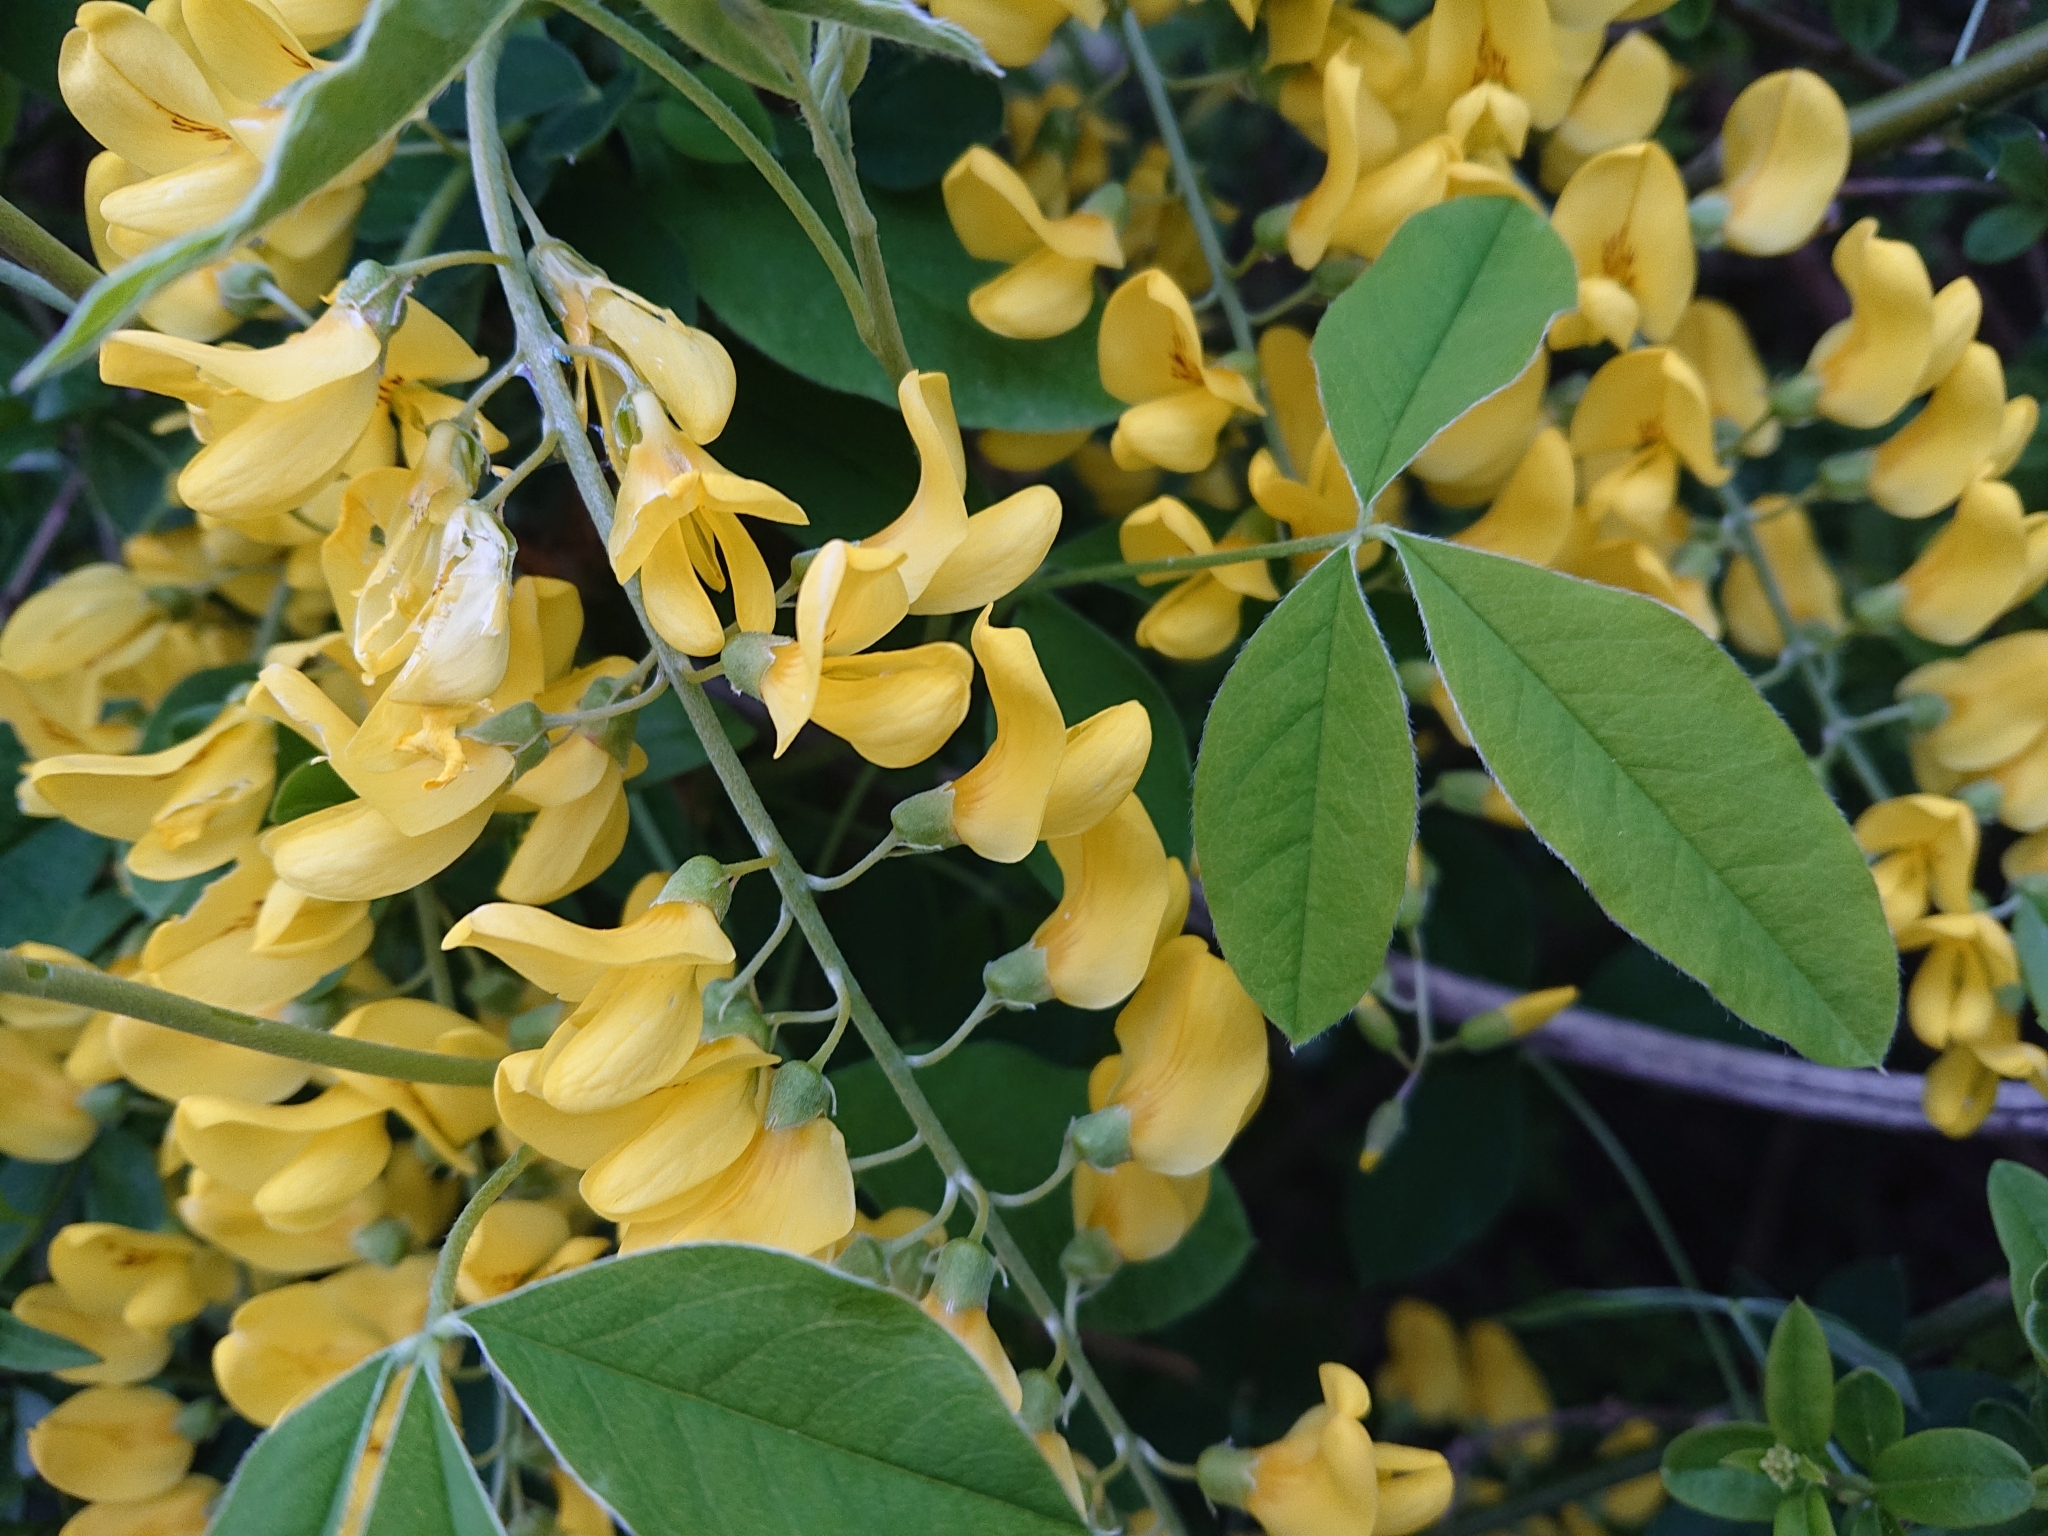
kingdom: Plantae
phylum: Tracheophyta
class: Magnoliopsida
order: Fabales
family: Fabaceae
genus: Laburnum
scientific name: Laburnum anagyroides
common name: Laburnum
